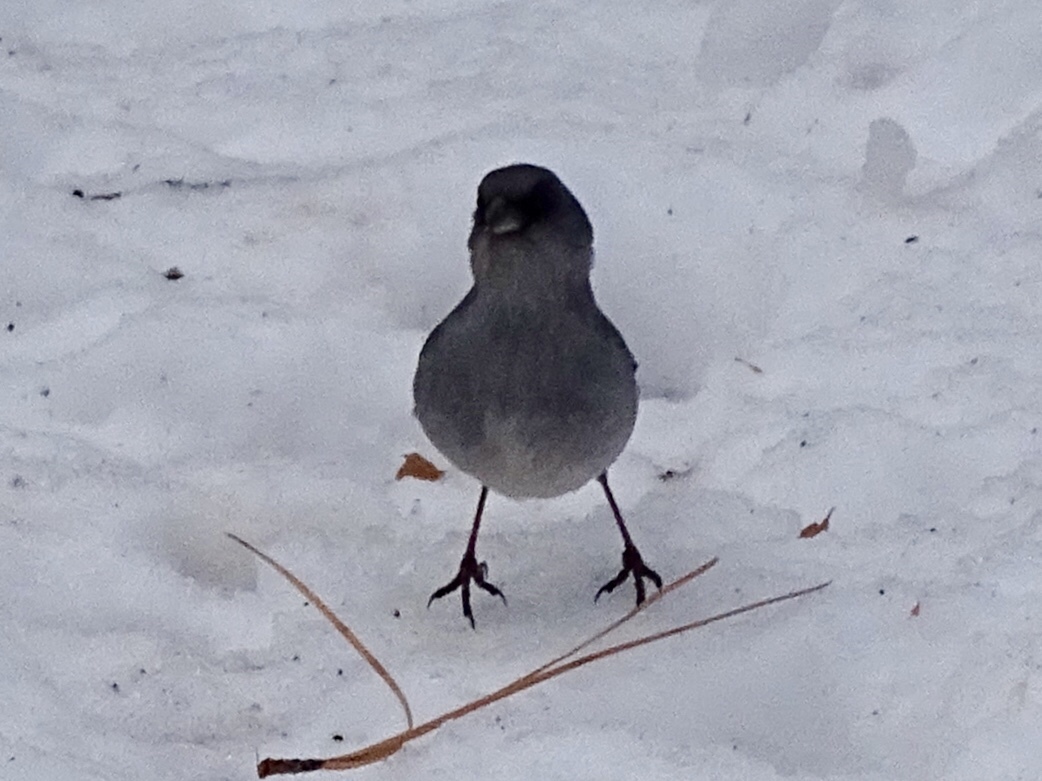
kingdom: Animalia
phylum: Chordata
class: Aves
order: Passeriformes
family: Passerellidae
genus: Junco
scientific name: Junco hyemalis
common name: Dark-eyed junco
